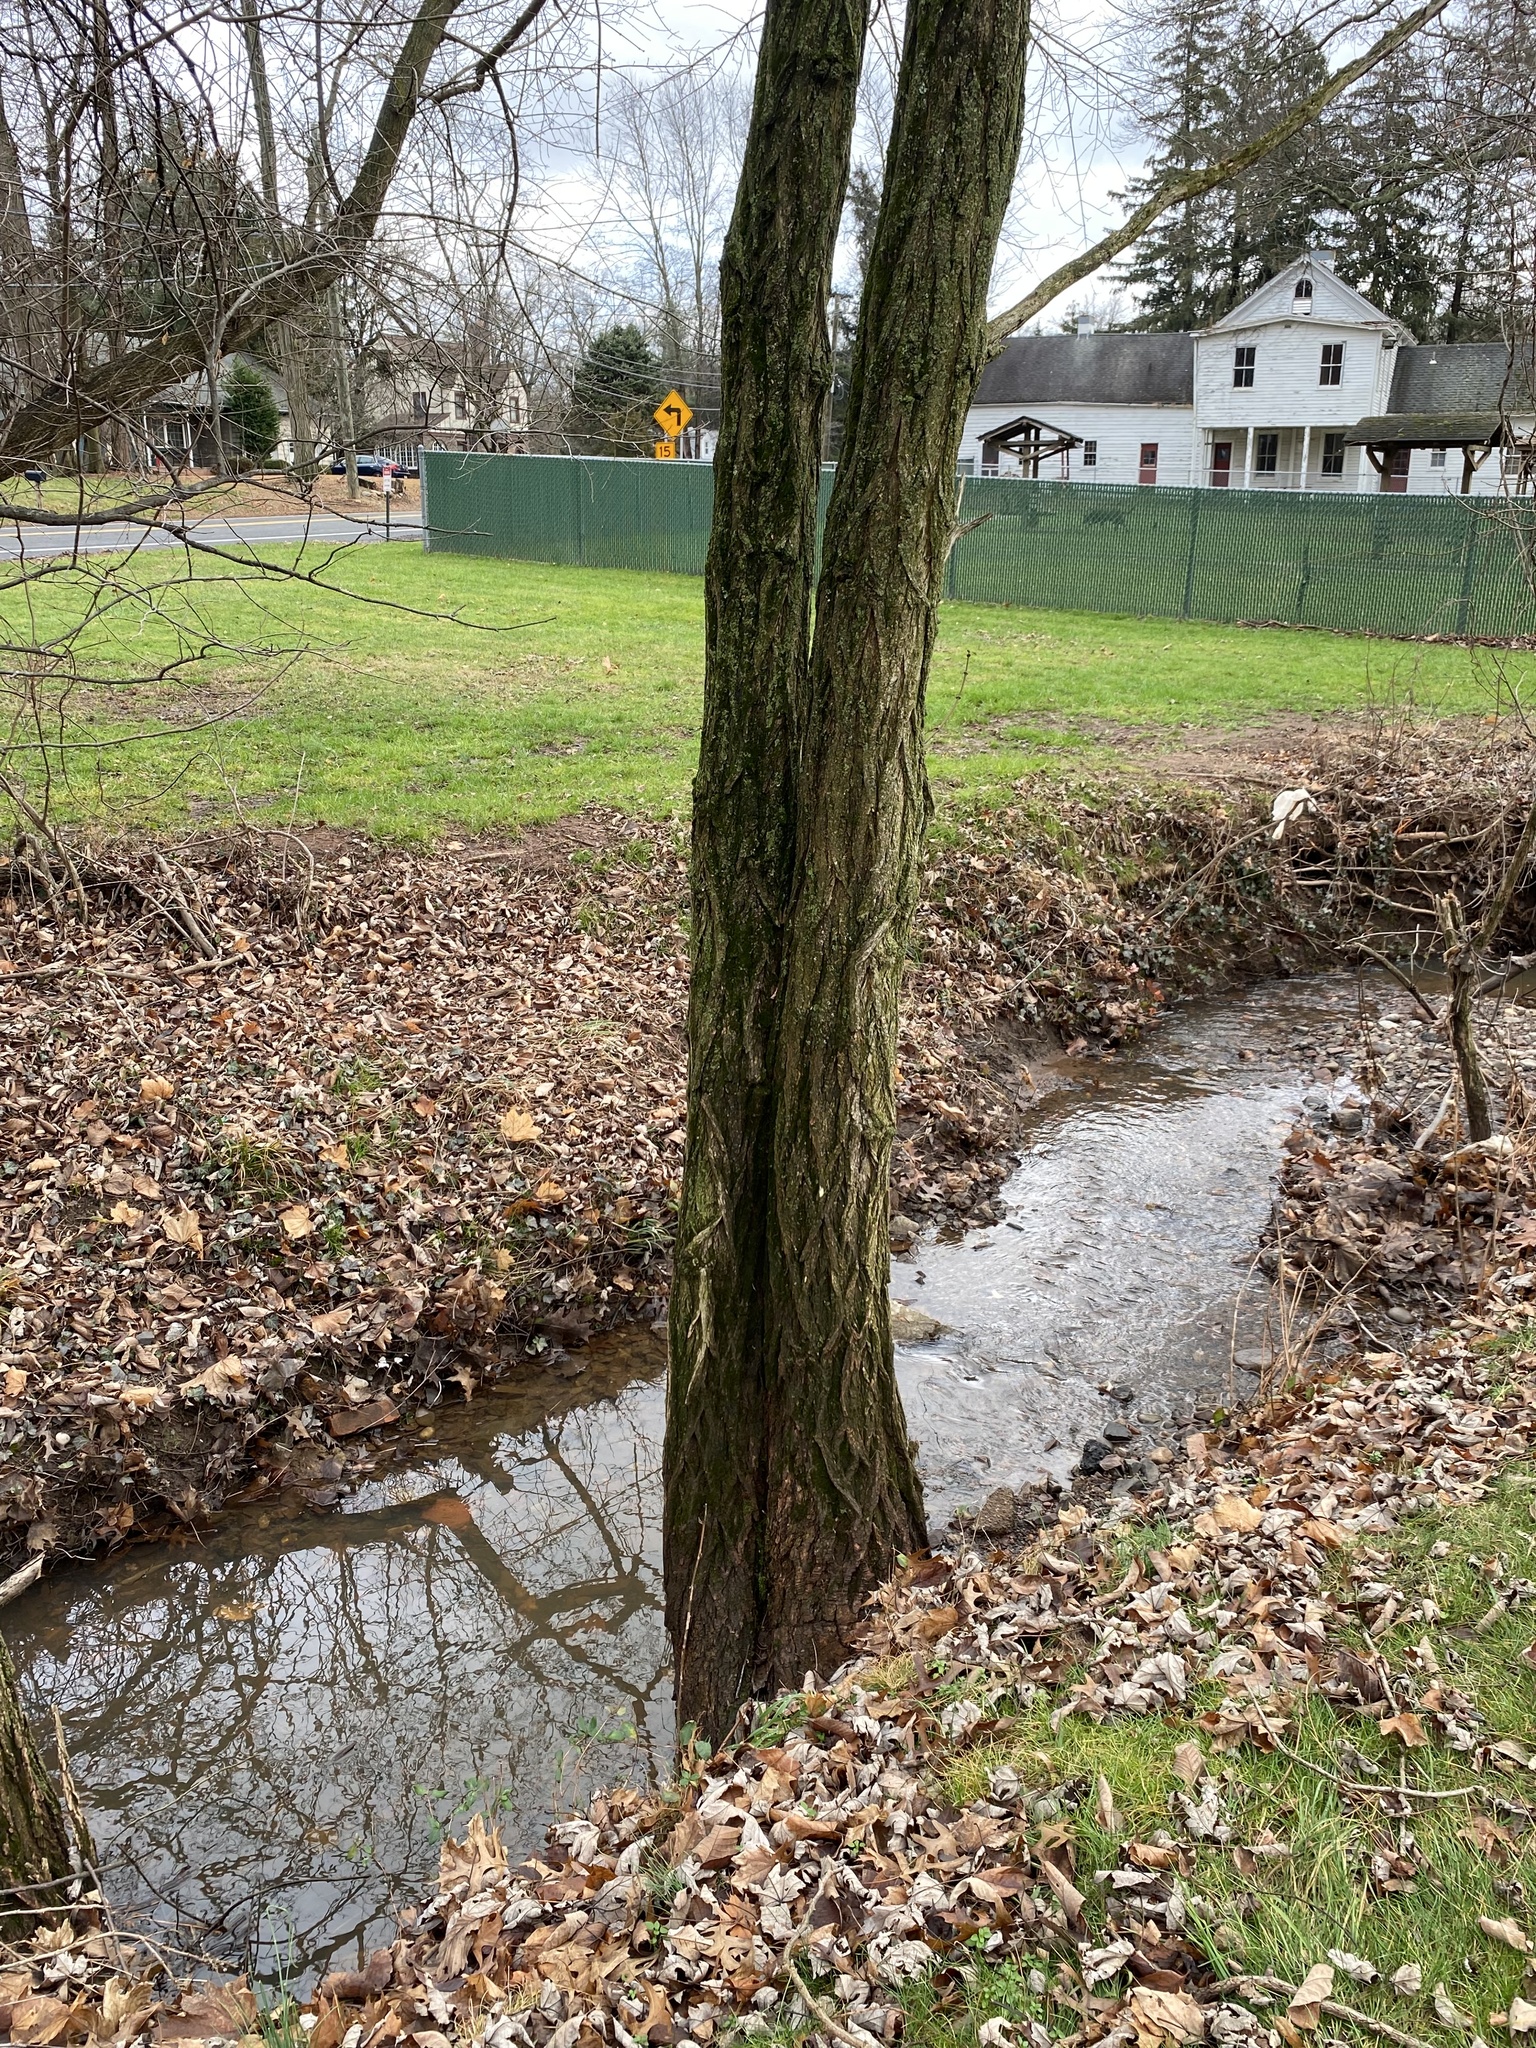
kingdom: Plantae
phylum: Tracheophyta
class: Magnoliopsida
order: Fabales
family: Fabaceae
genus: Robinia
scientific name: Robinia pseudoacacia
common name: Black locust
